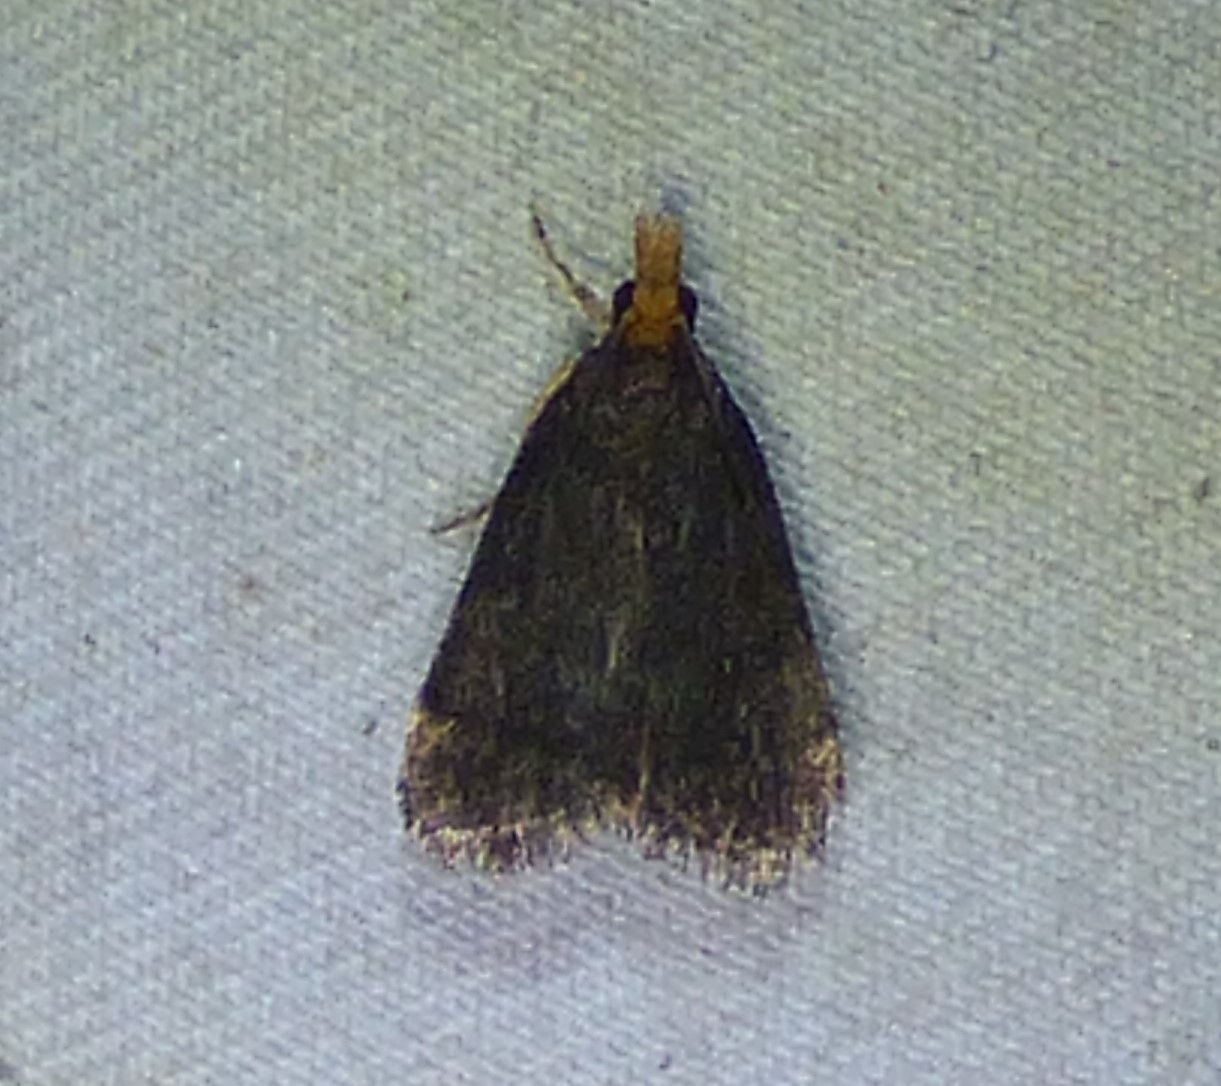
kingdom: Animalia
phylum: Arthropoda
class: Insecta
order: Lepidoptera
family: Crambidae
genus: Pyrausta
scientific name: Pyrausta merrickalis
